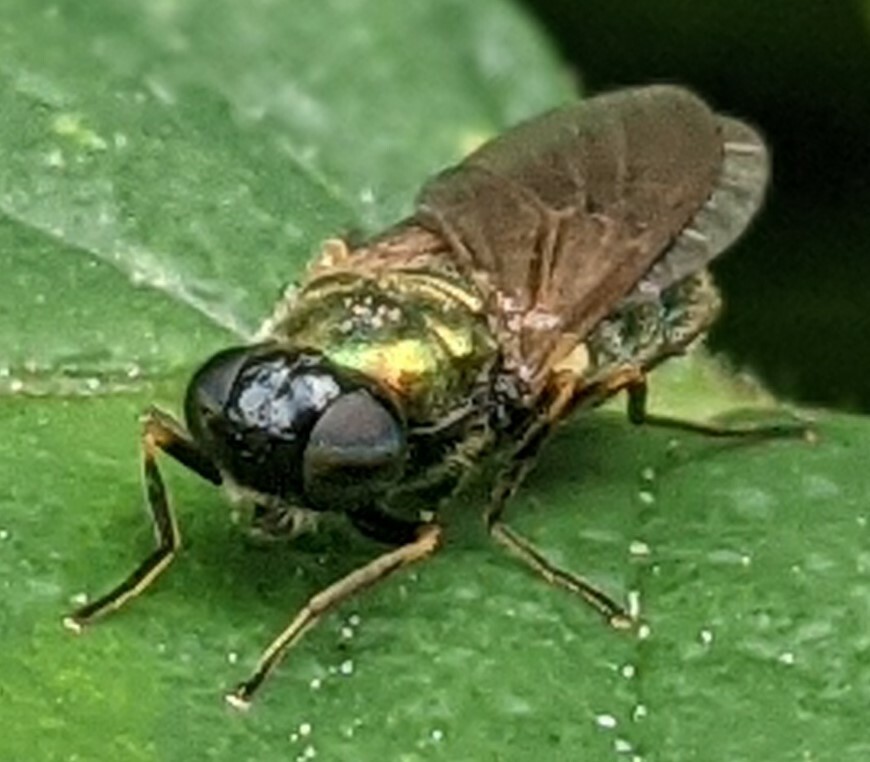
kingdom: Animalia
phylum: Arthropoda
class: Insecta
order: Diptera
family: Stratiomyidae
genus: Chloromyia
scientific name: Chloromyia formosa
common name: Soldier fly
